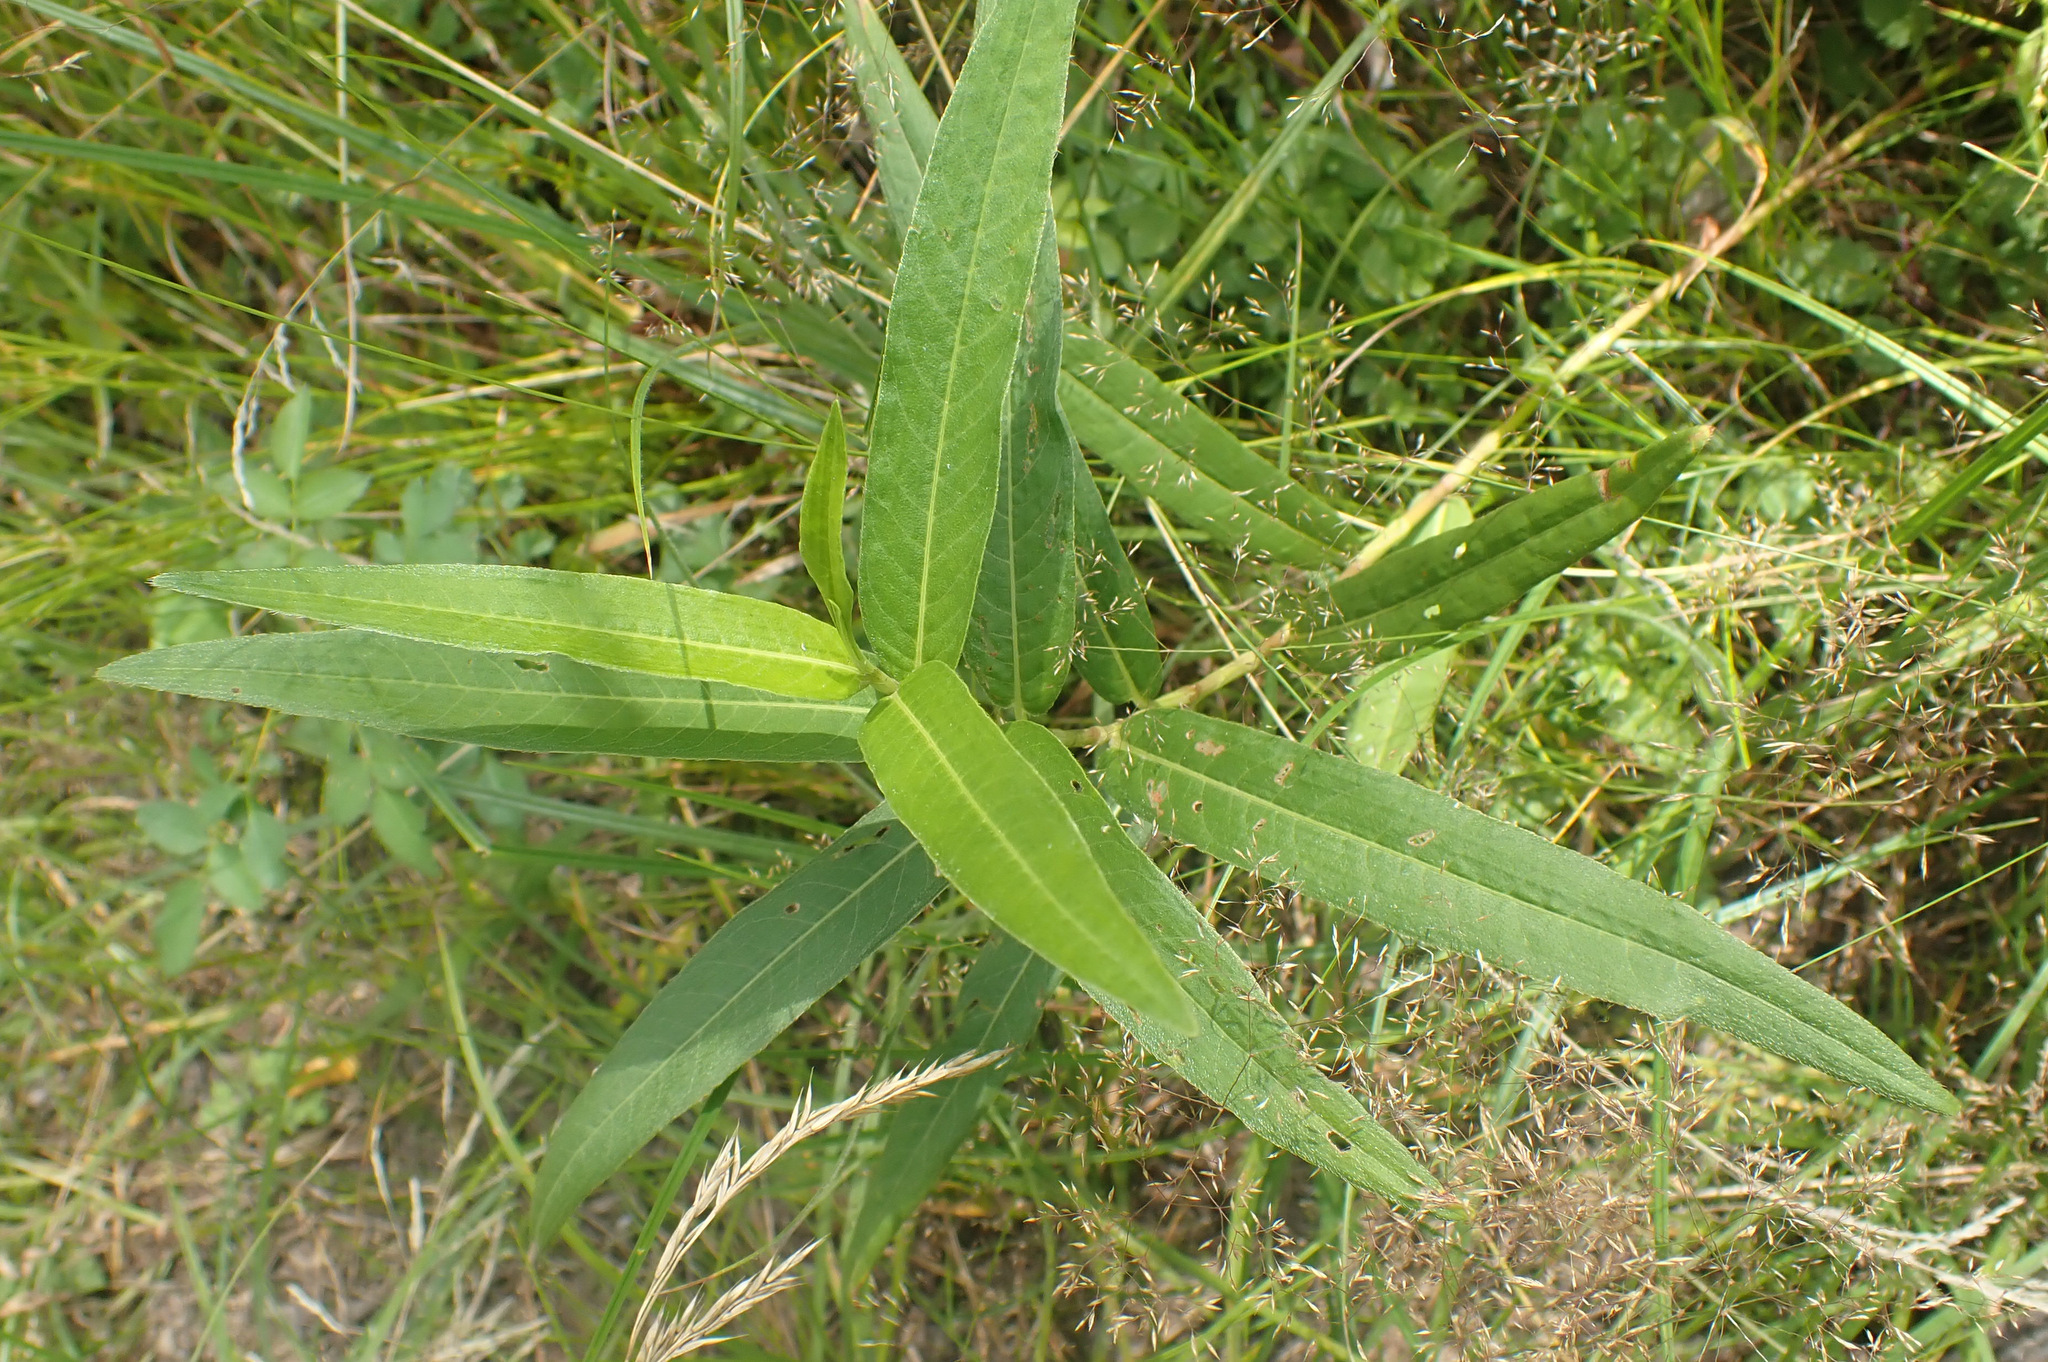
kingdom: Plantae
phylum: Tracheophyta
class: Magnoliopsida
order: Caryophyllales
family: Polygonaceae
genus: Persicaria
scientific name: Persicaria amphibia
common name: Amphibious bistort
